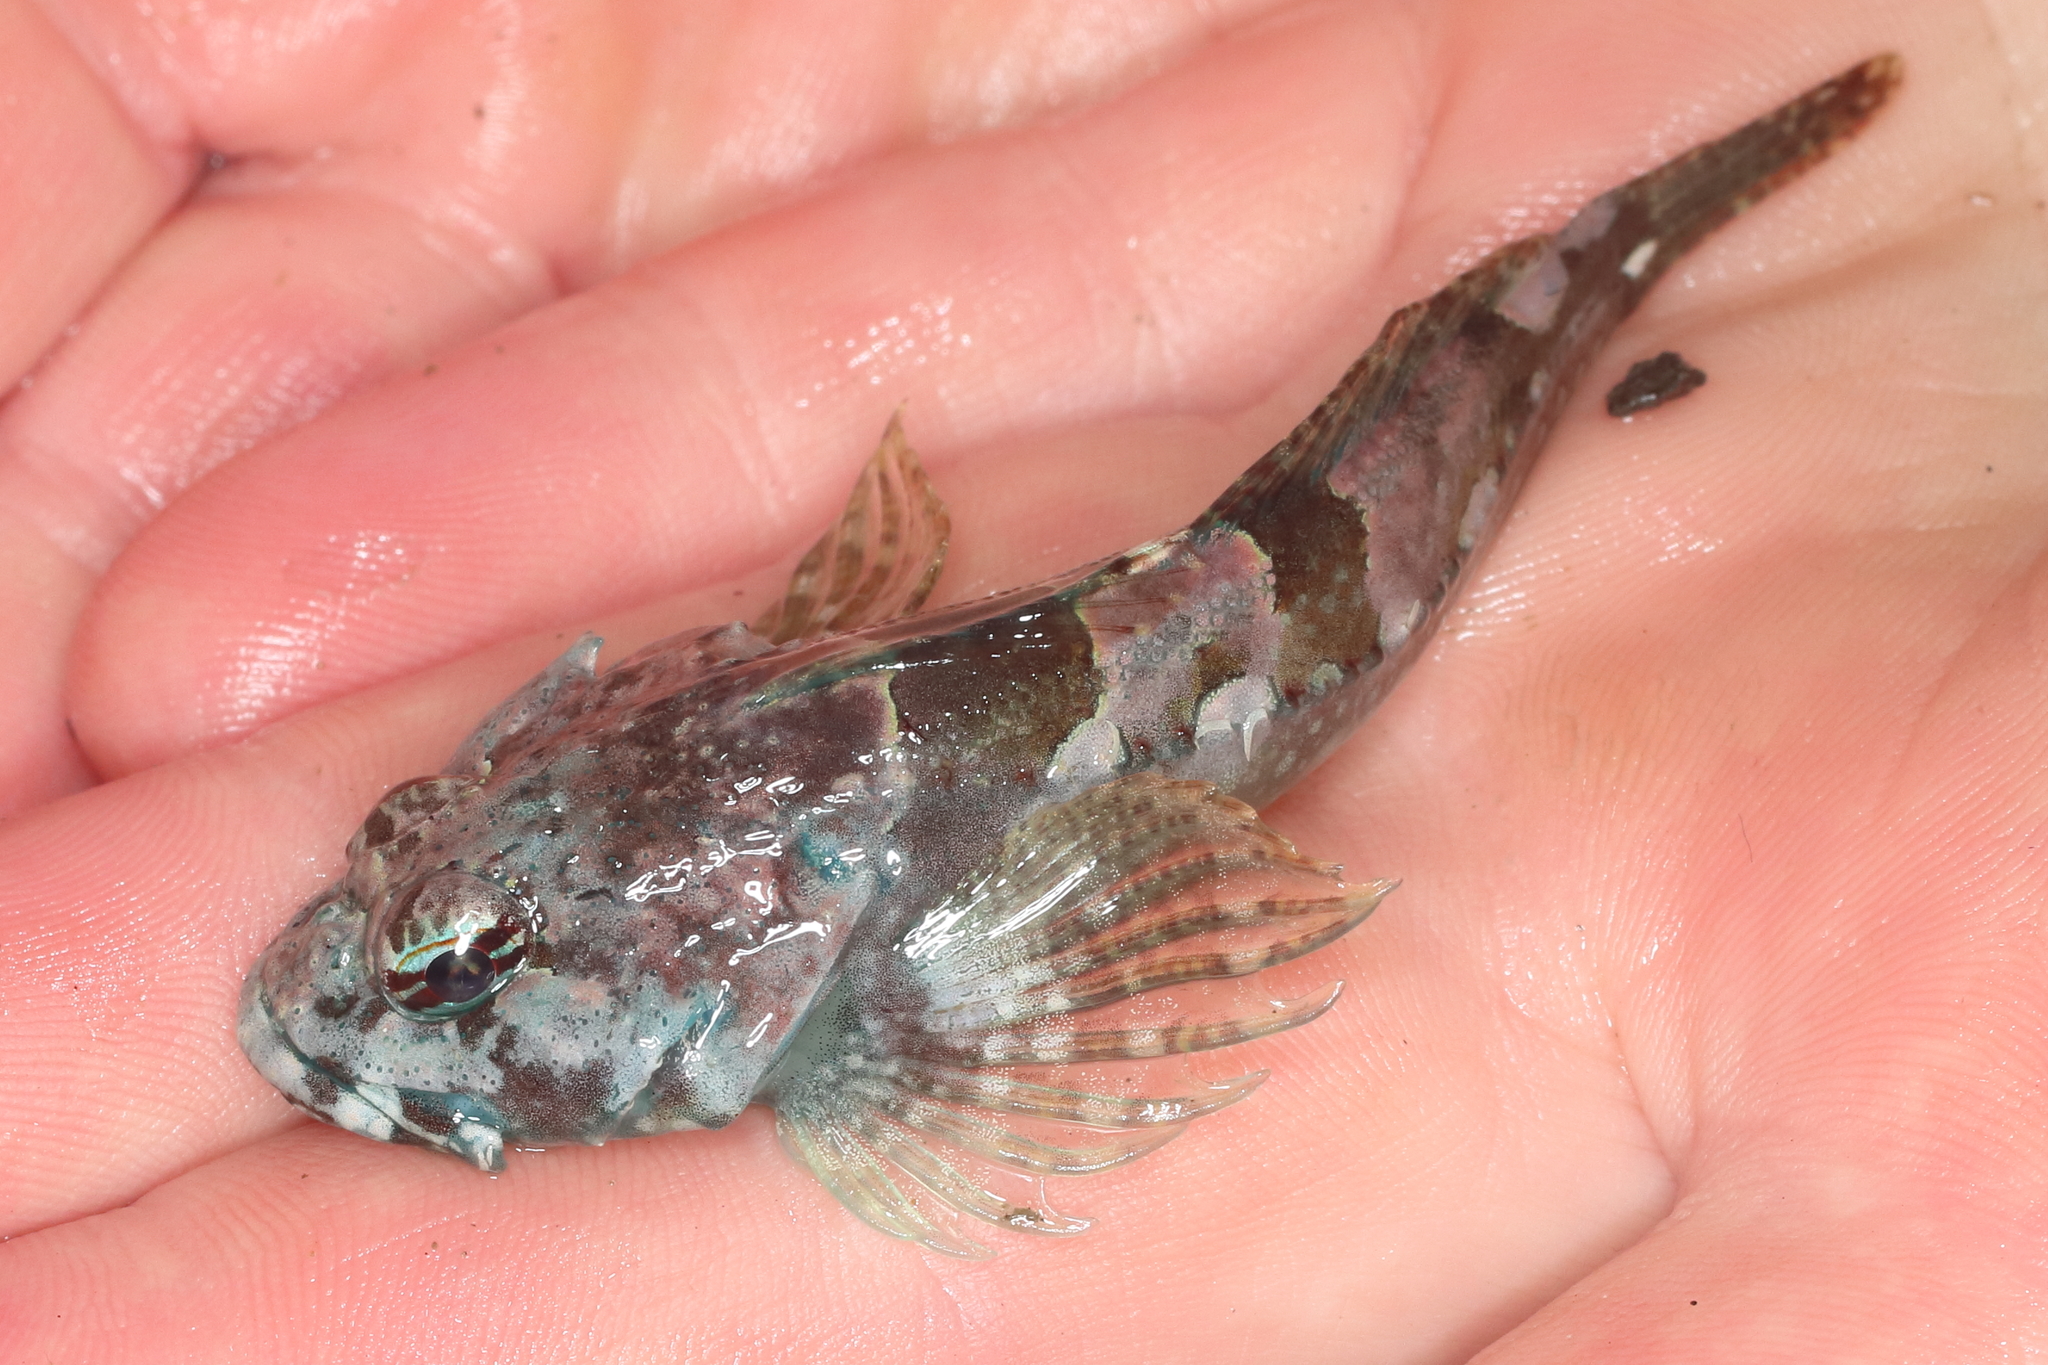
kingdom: Animalia
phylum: Chordata
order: Scorpaeniformes
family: Cottidae
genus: Artedius
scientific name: Artedius lateralis
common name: Smooth-head sculpin
